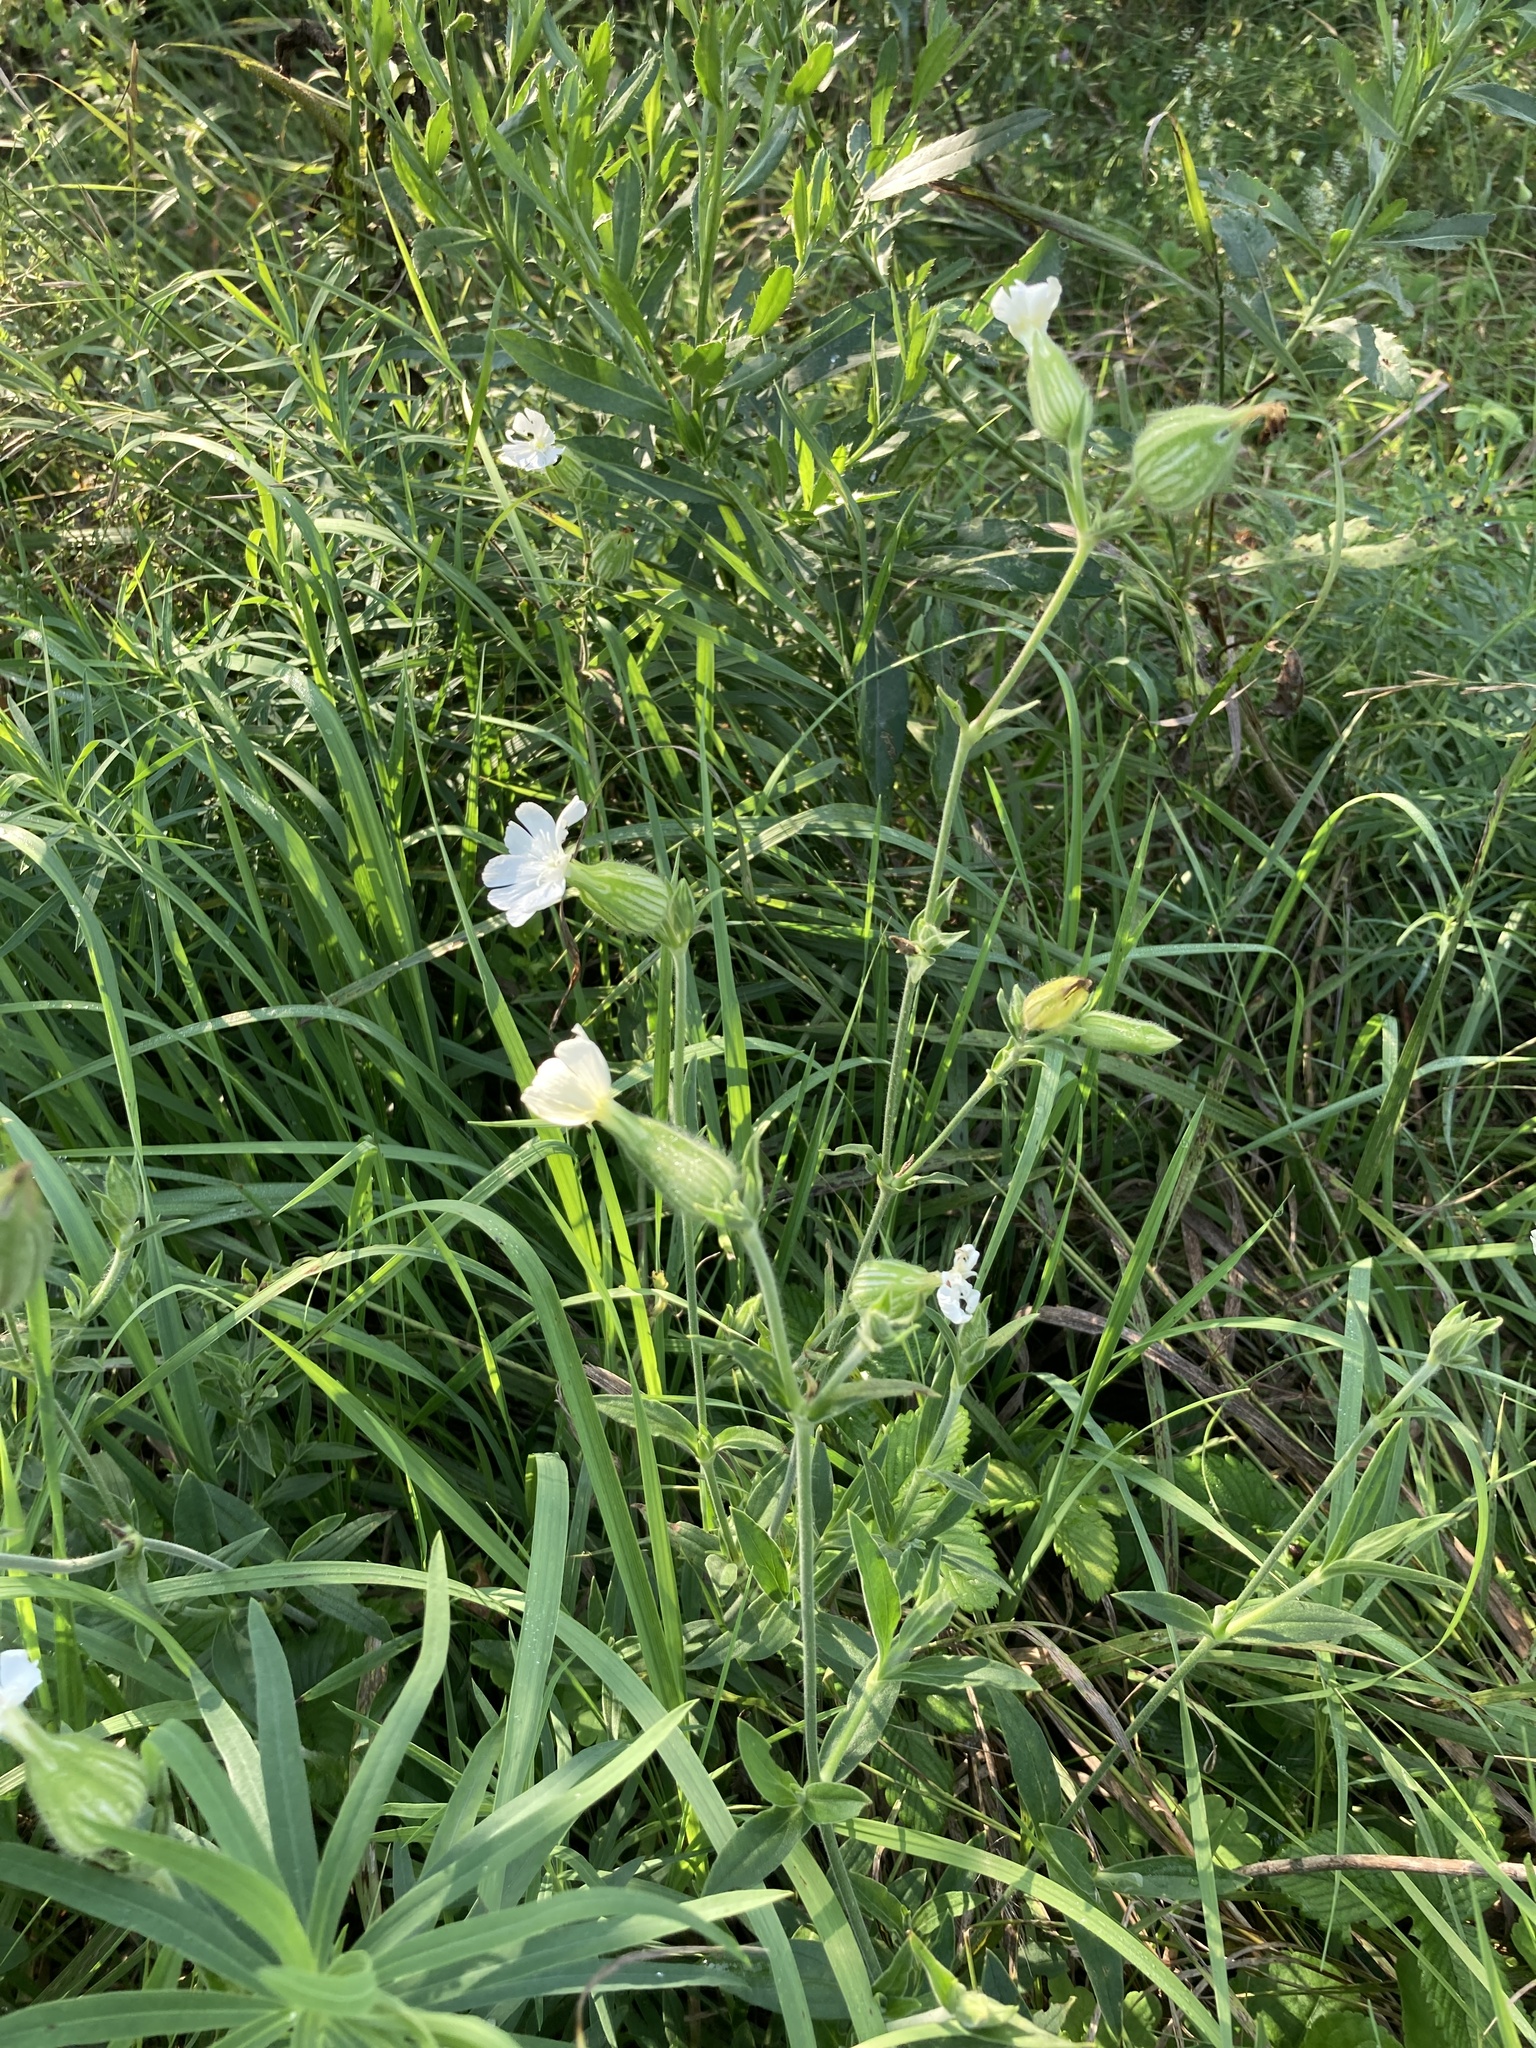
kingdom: Plantae
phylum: Tracheophyta
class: Magnoliopsida
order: Caryophyllales
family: Caryophyllaceae
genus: Silene
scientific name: Silene latifolia
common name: White campion
